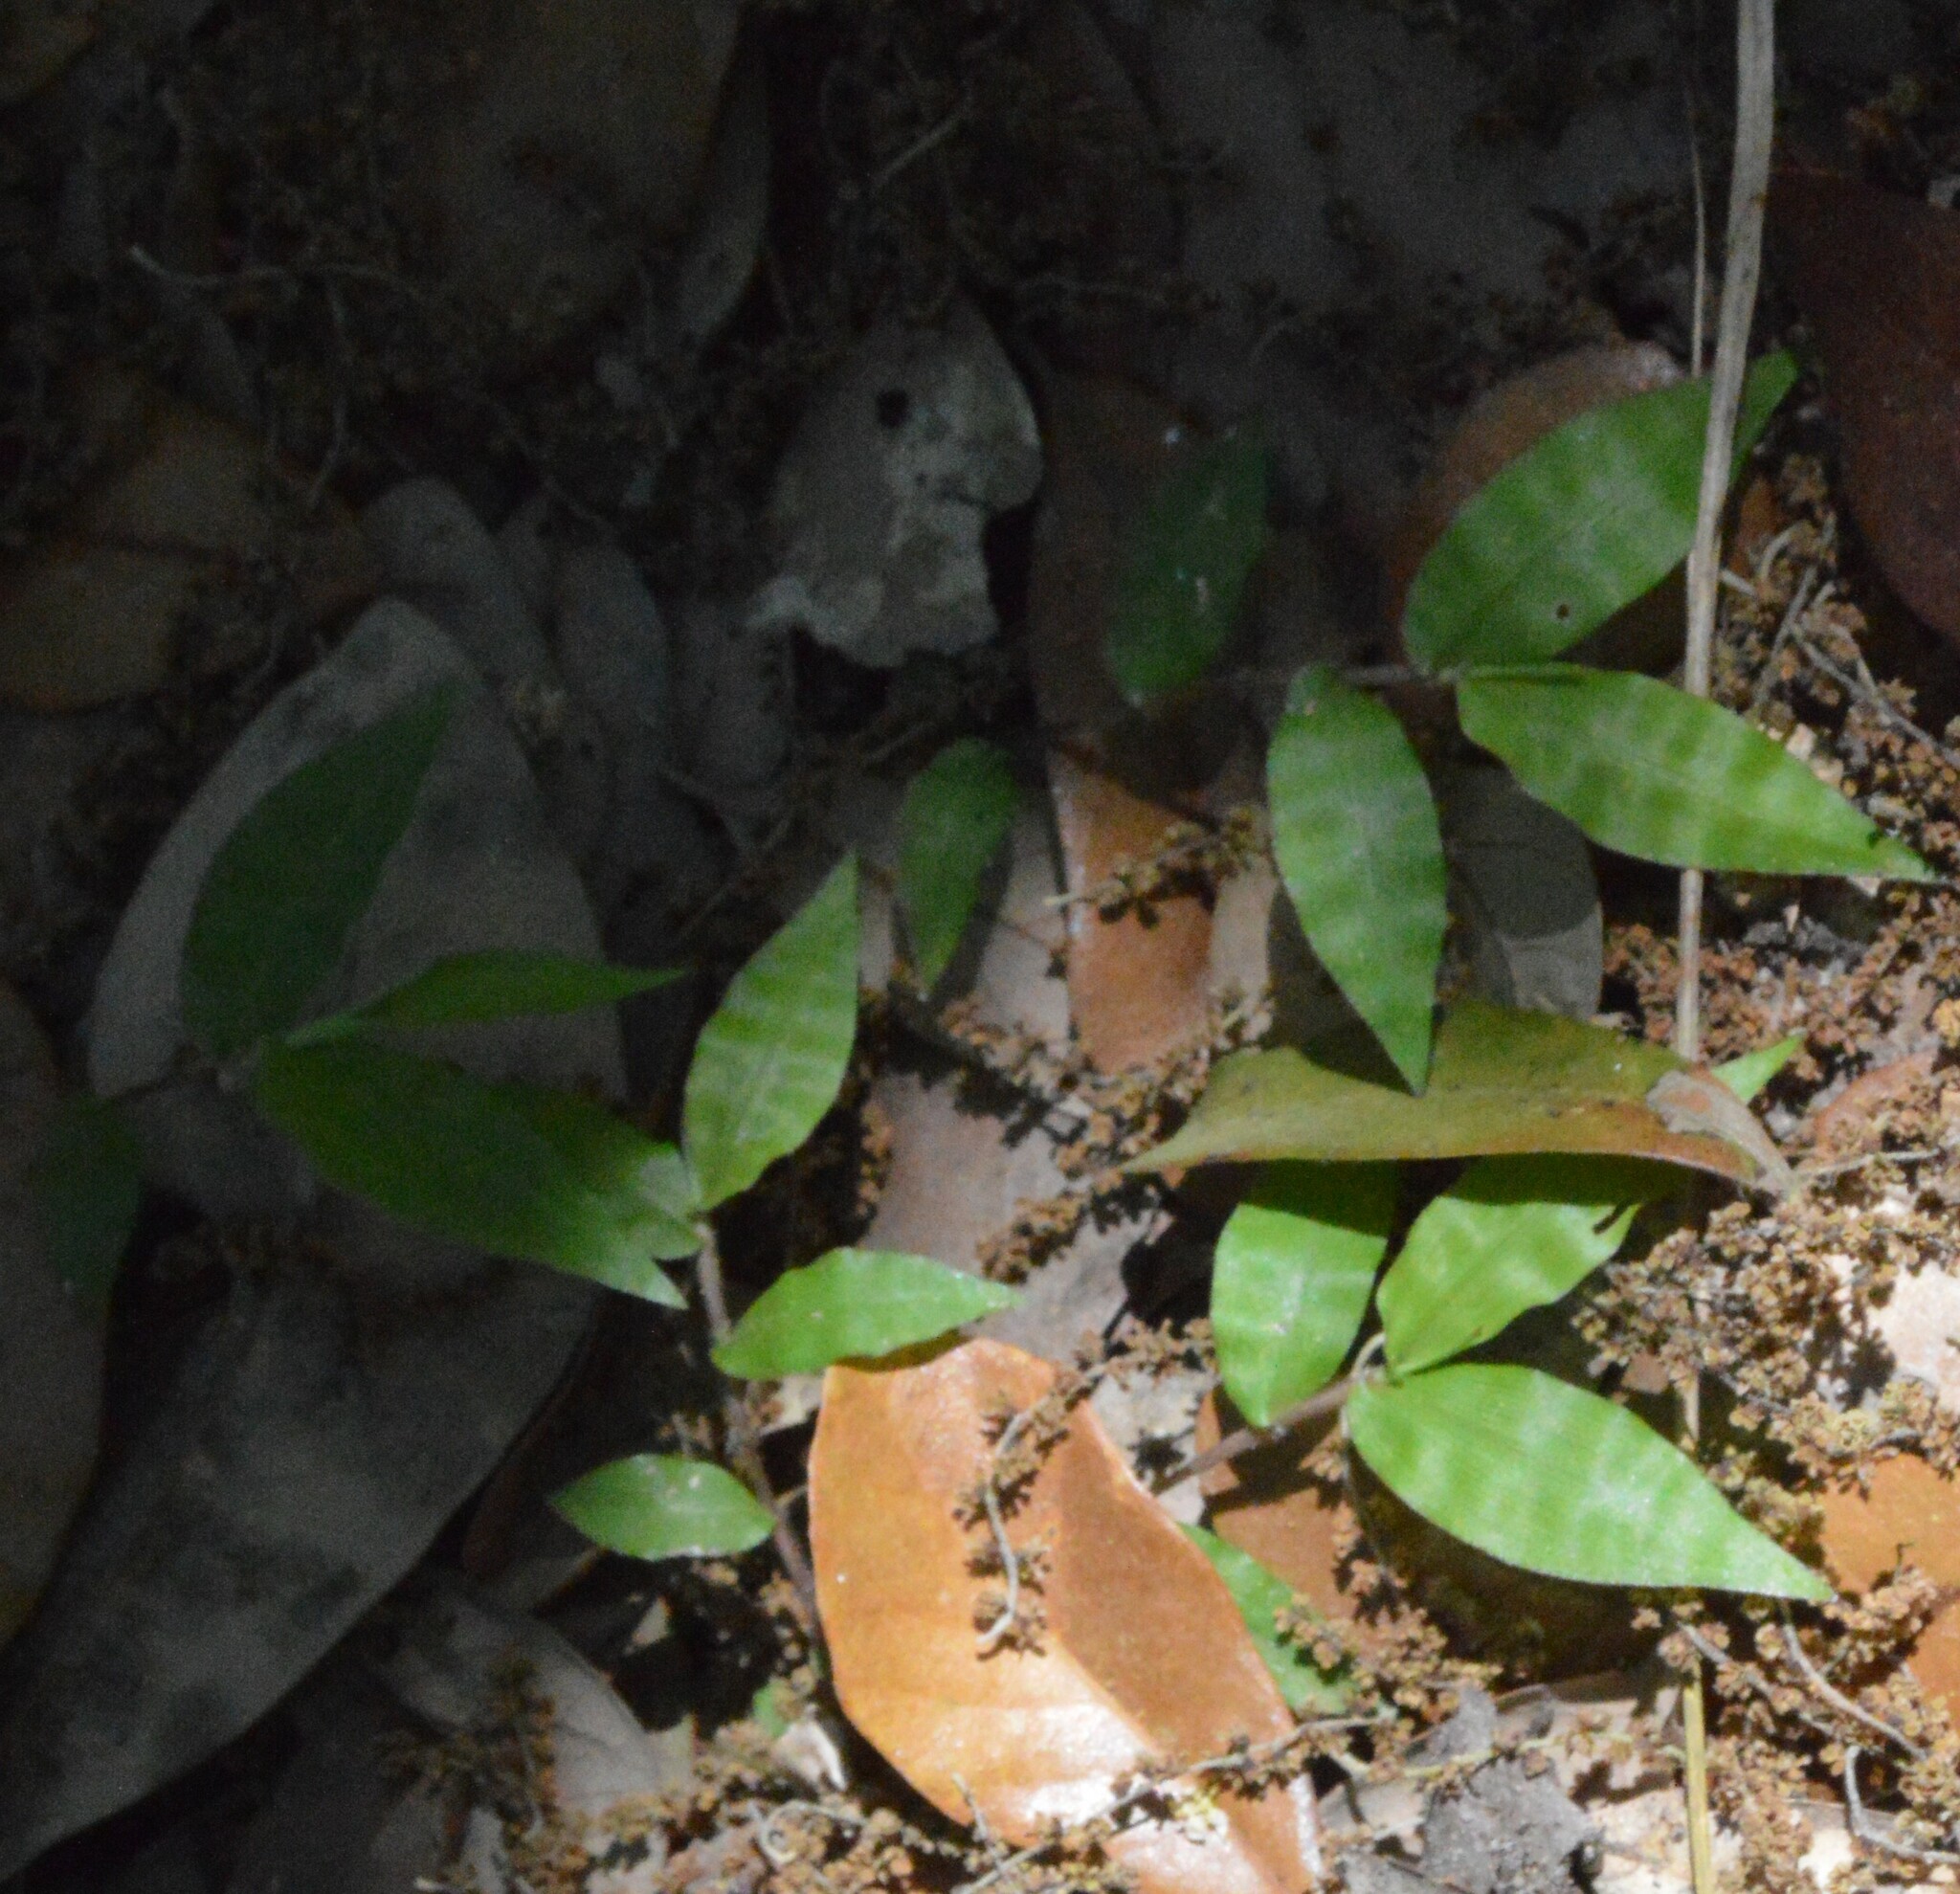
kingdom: Plantae
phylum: Tracheophyta
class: Liliopsida
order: Poales
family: Poaceae
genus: Oplismenus
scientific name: Oplismenus hirtellus
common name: Basketgrass
